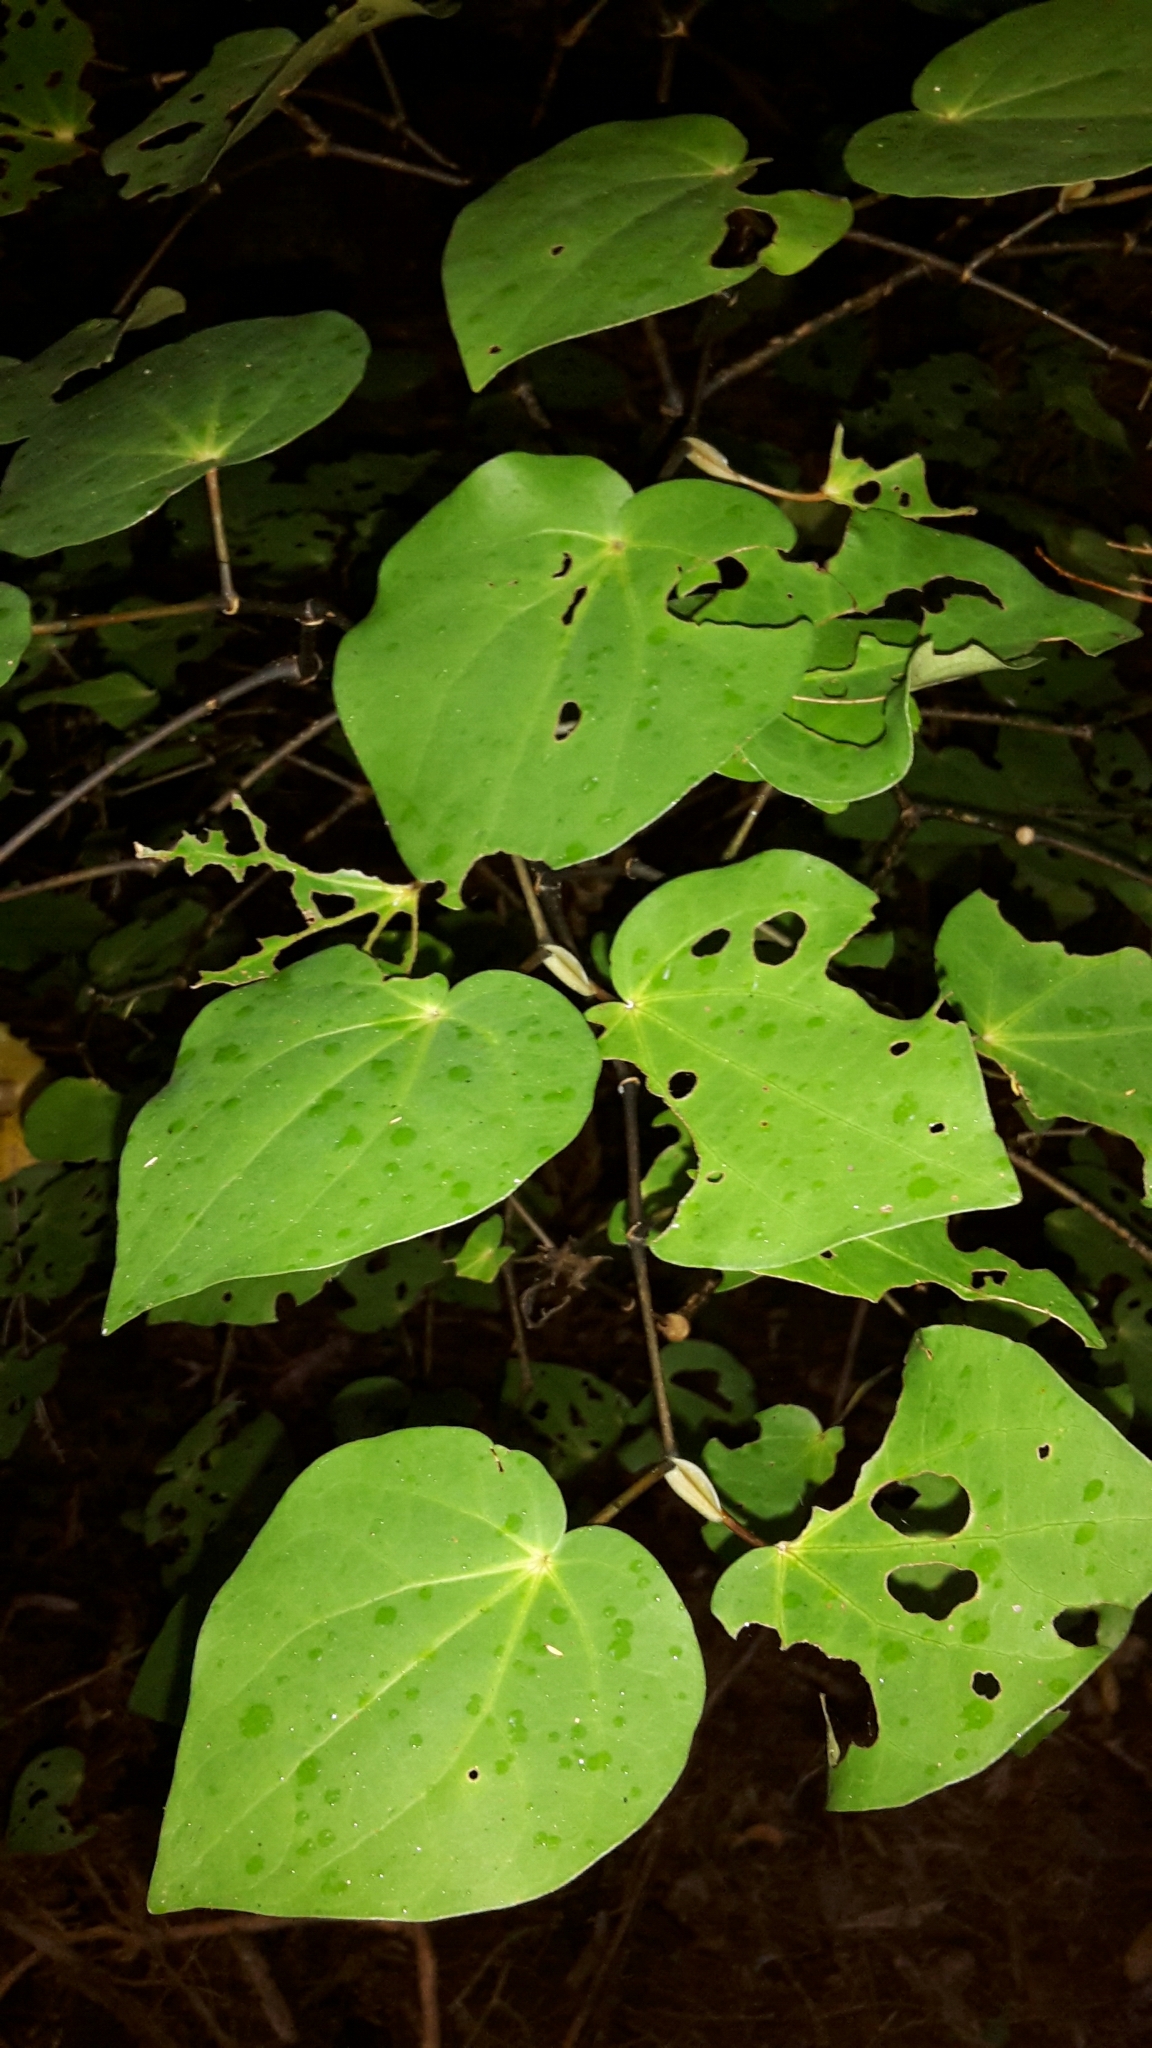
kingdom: Plantae
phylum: Tracheophyta
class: Magnoliopsida
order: Piperales
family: Piperaceae
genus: Macropiper
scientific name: Macropiper excelsum
